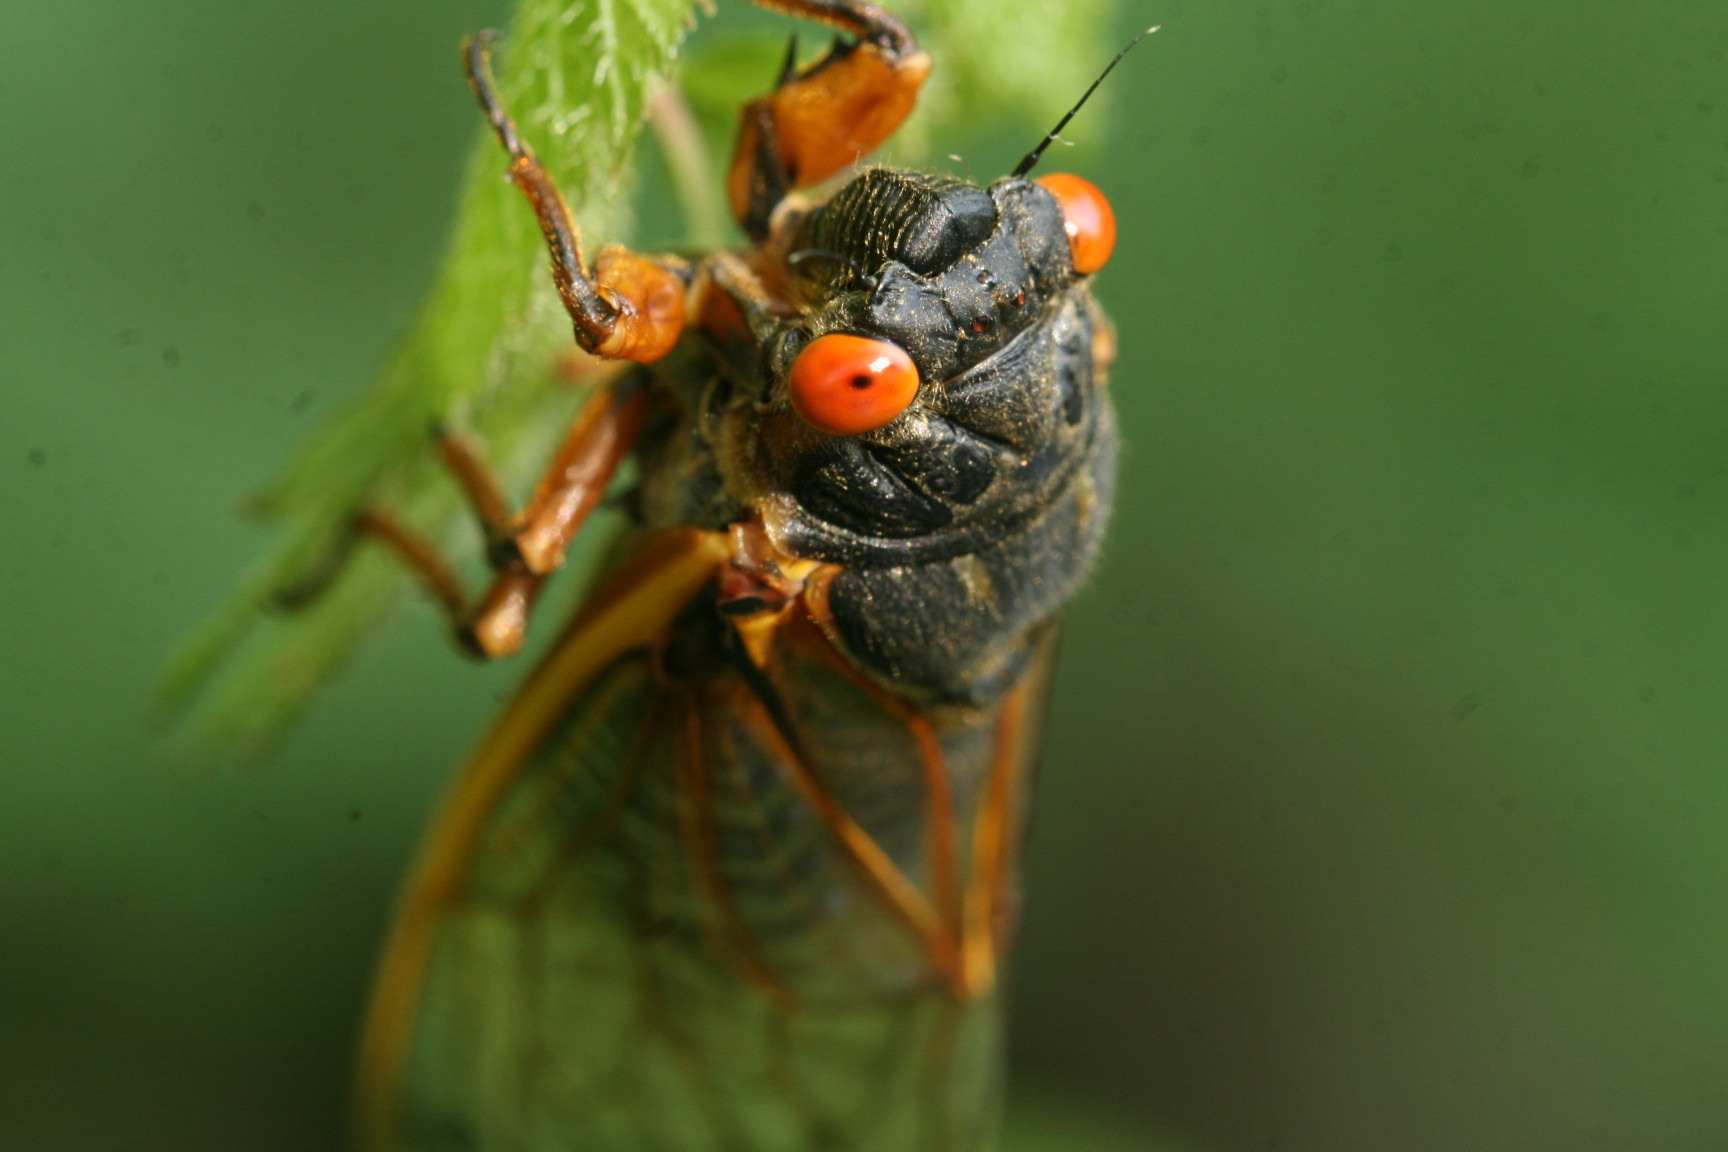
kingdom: Animalia
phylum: Arthropoda
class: Insecta
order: Hemiptera
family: Cicadidae
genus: Magicicada
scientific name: Magicicada septendecim
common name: Periodical cicada
